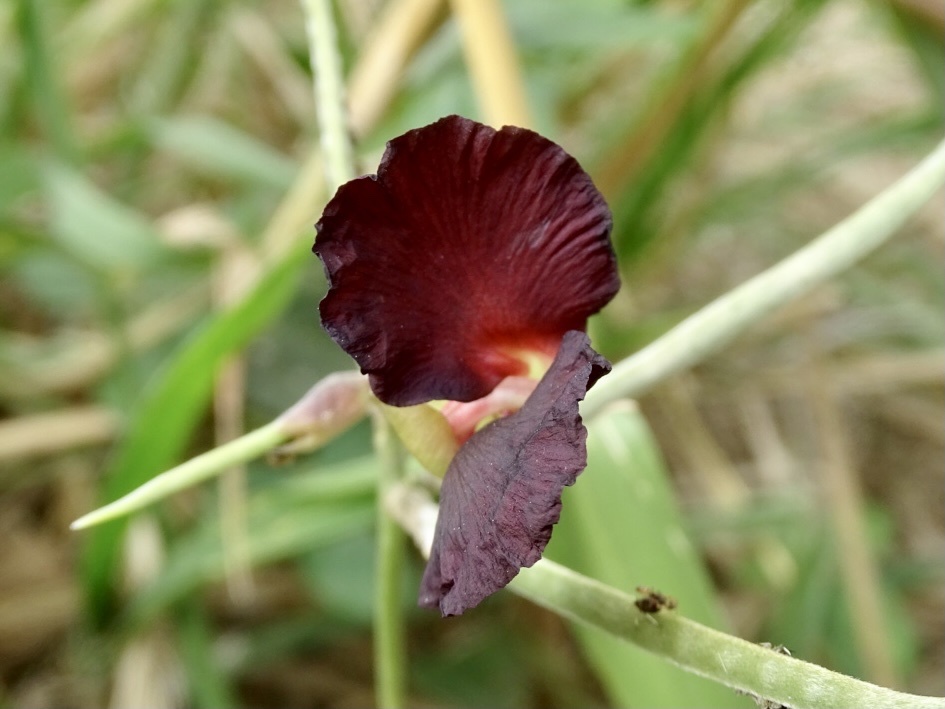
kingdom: Plantae
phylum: Tracheophyta
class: Magnoliopsida
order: Fabales
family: Fabaceae
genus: Macroptilium
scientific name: Macroptilium atropurpureum
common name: Purple bushbean
